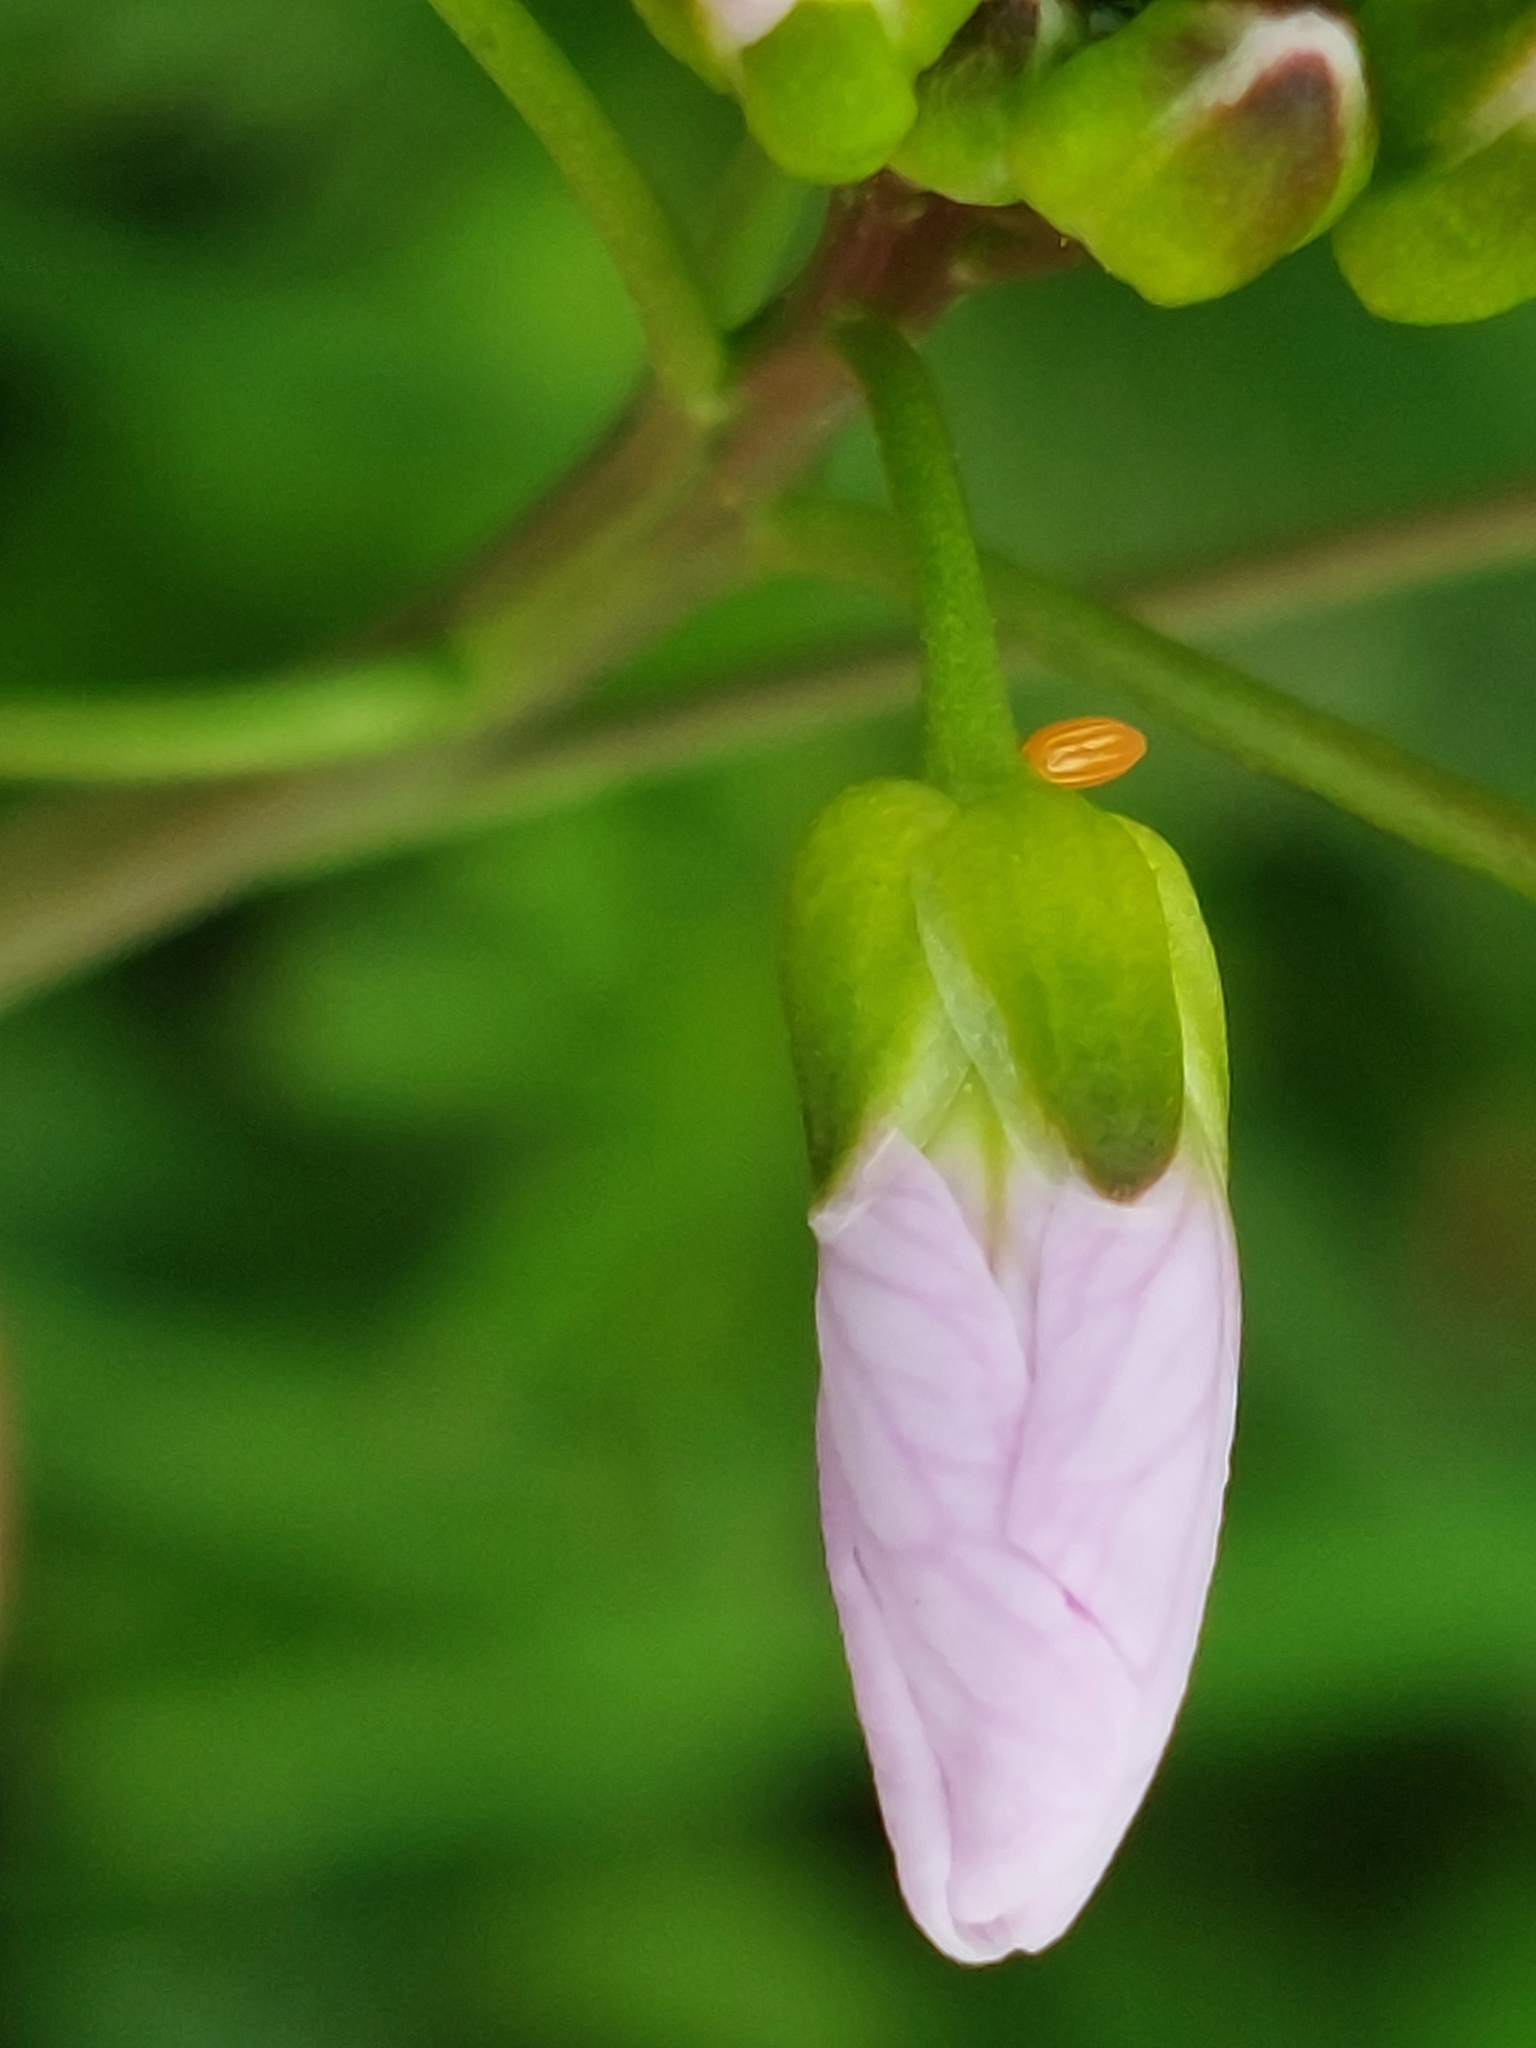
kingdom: Animalia
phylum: Arthropoda
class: Insecta
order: Lepidoptera
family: Pieridae
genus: Anthocharis
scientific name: Anthocharis cardamines
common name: Orange-tip
